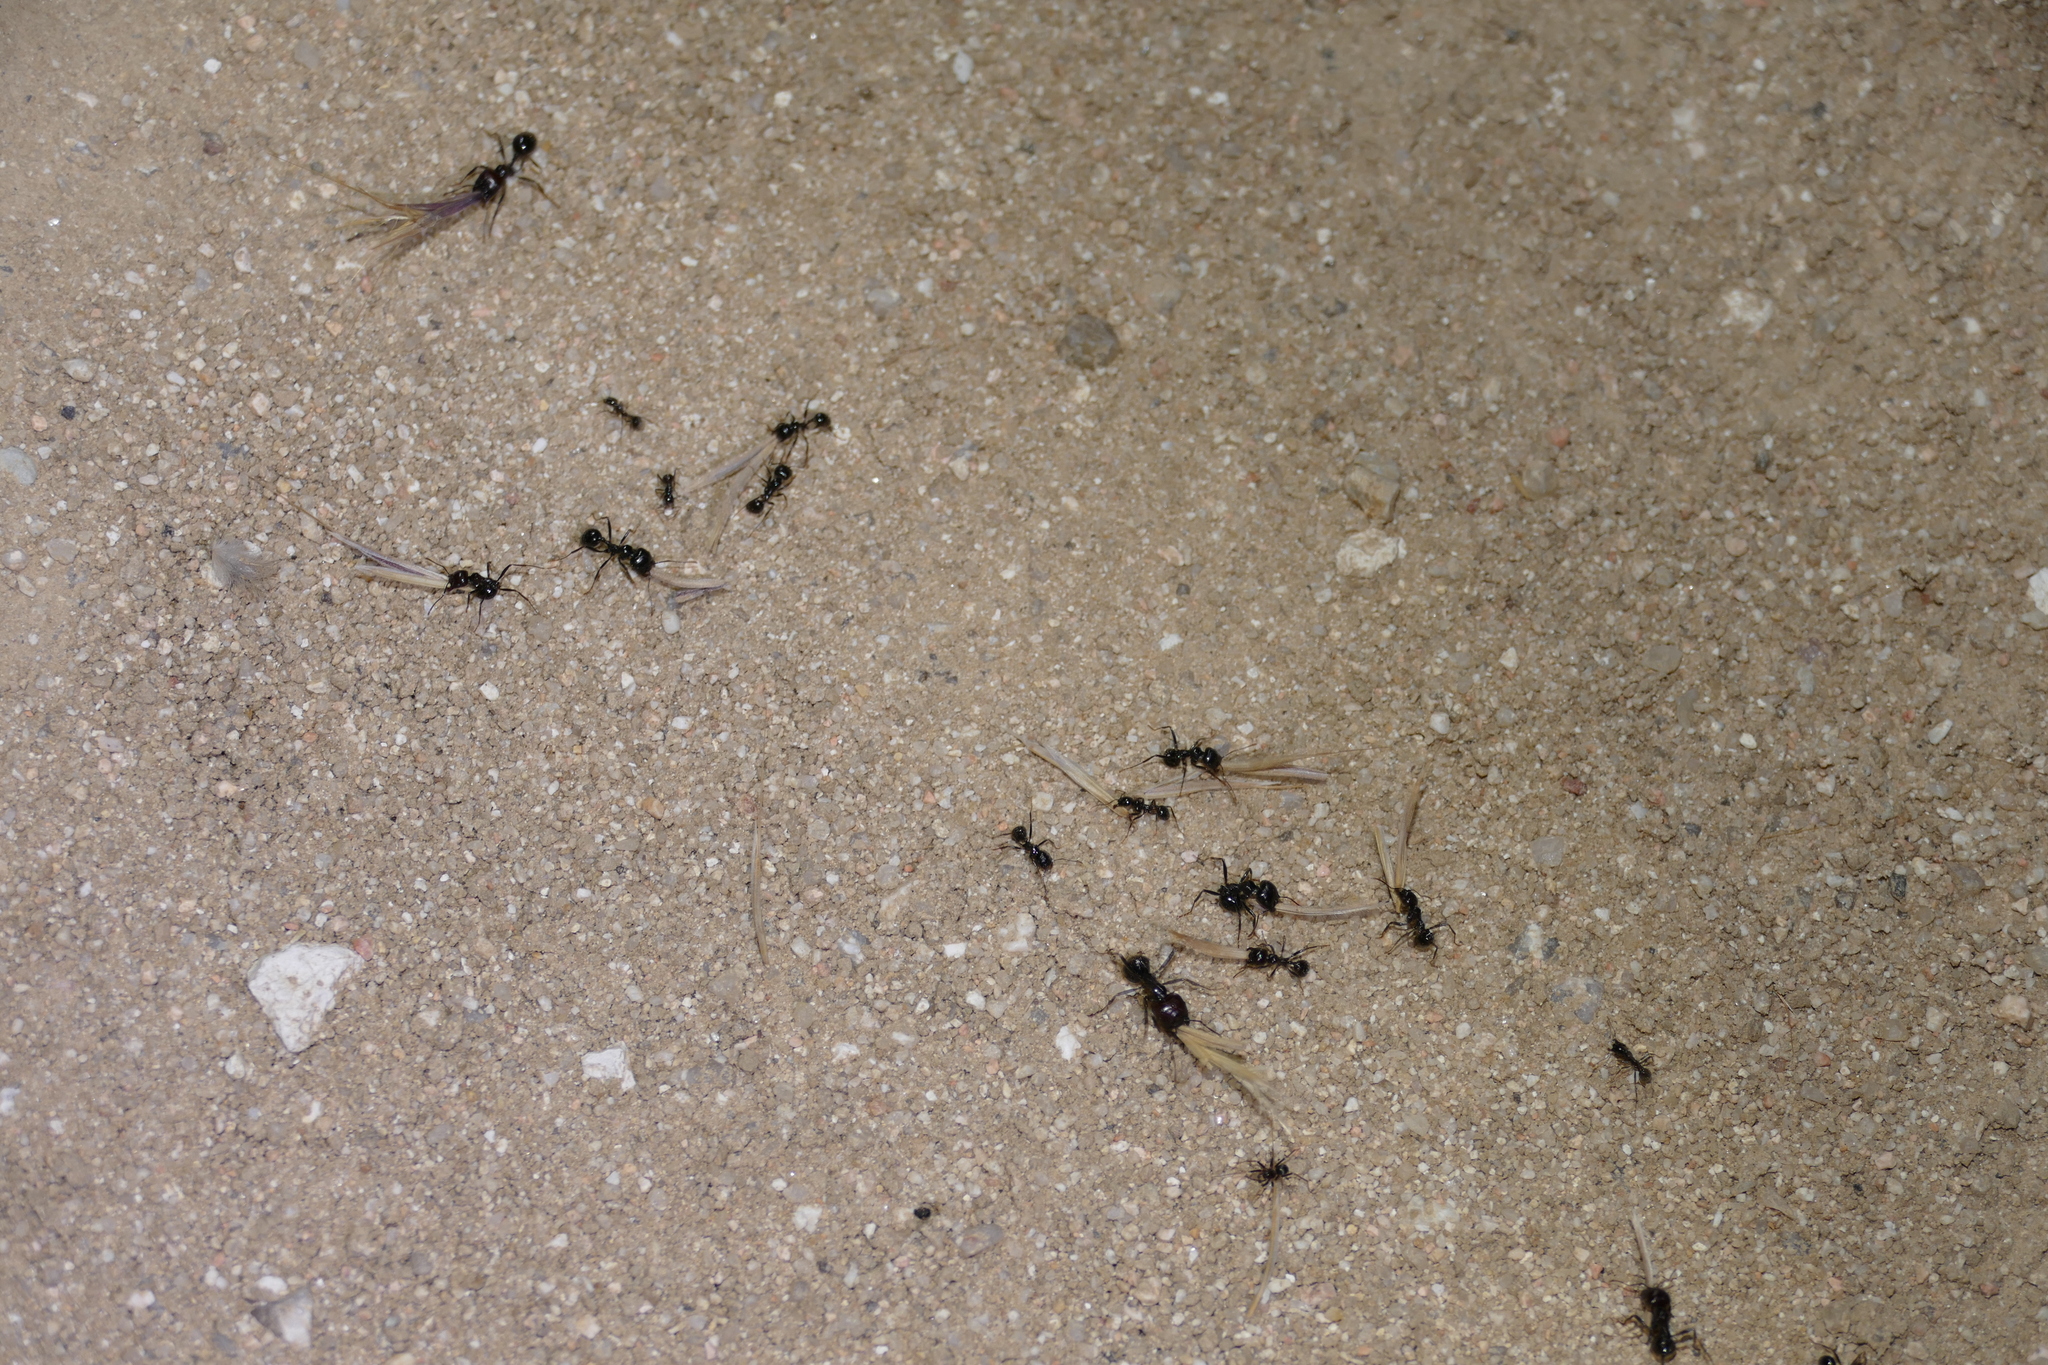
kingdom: Animalia
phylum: Arthropoda
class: Insecta
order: Hymenoptera
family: Formicidae
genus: Messor
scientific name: Messor barbarus
